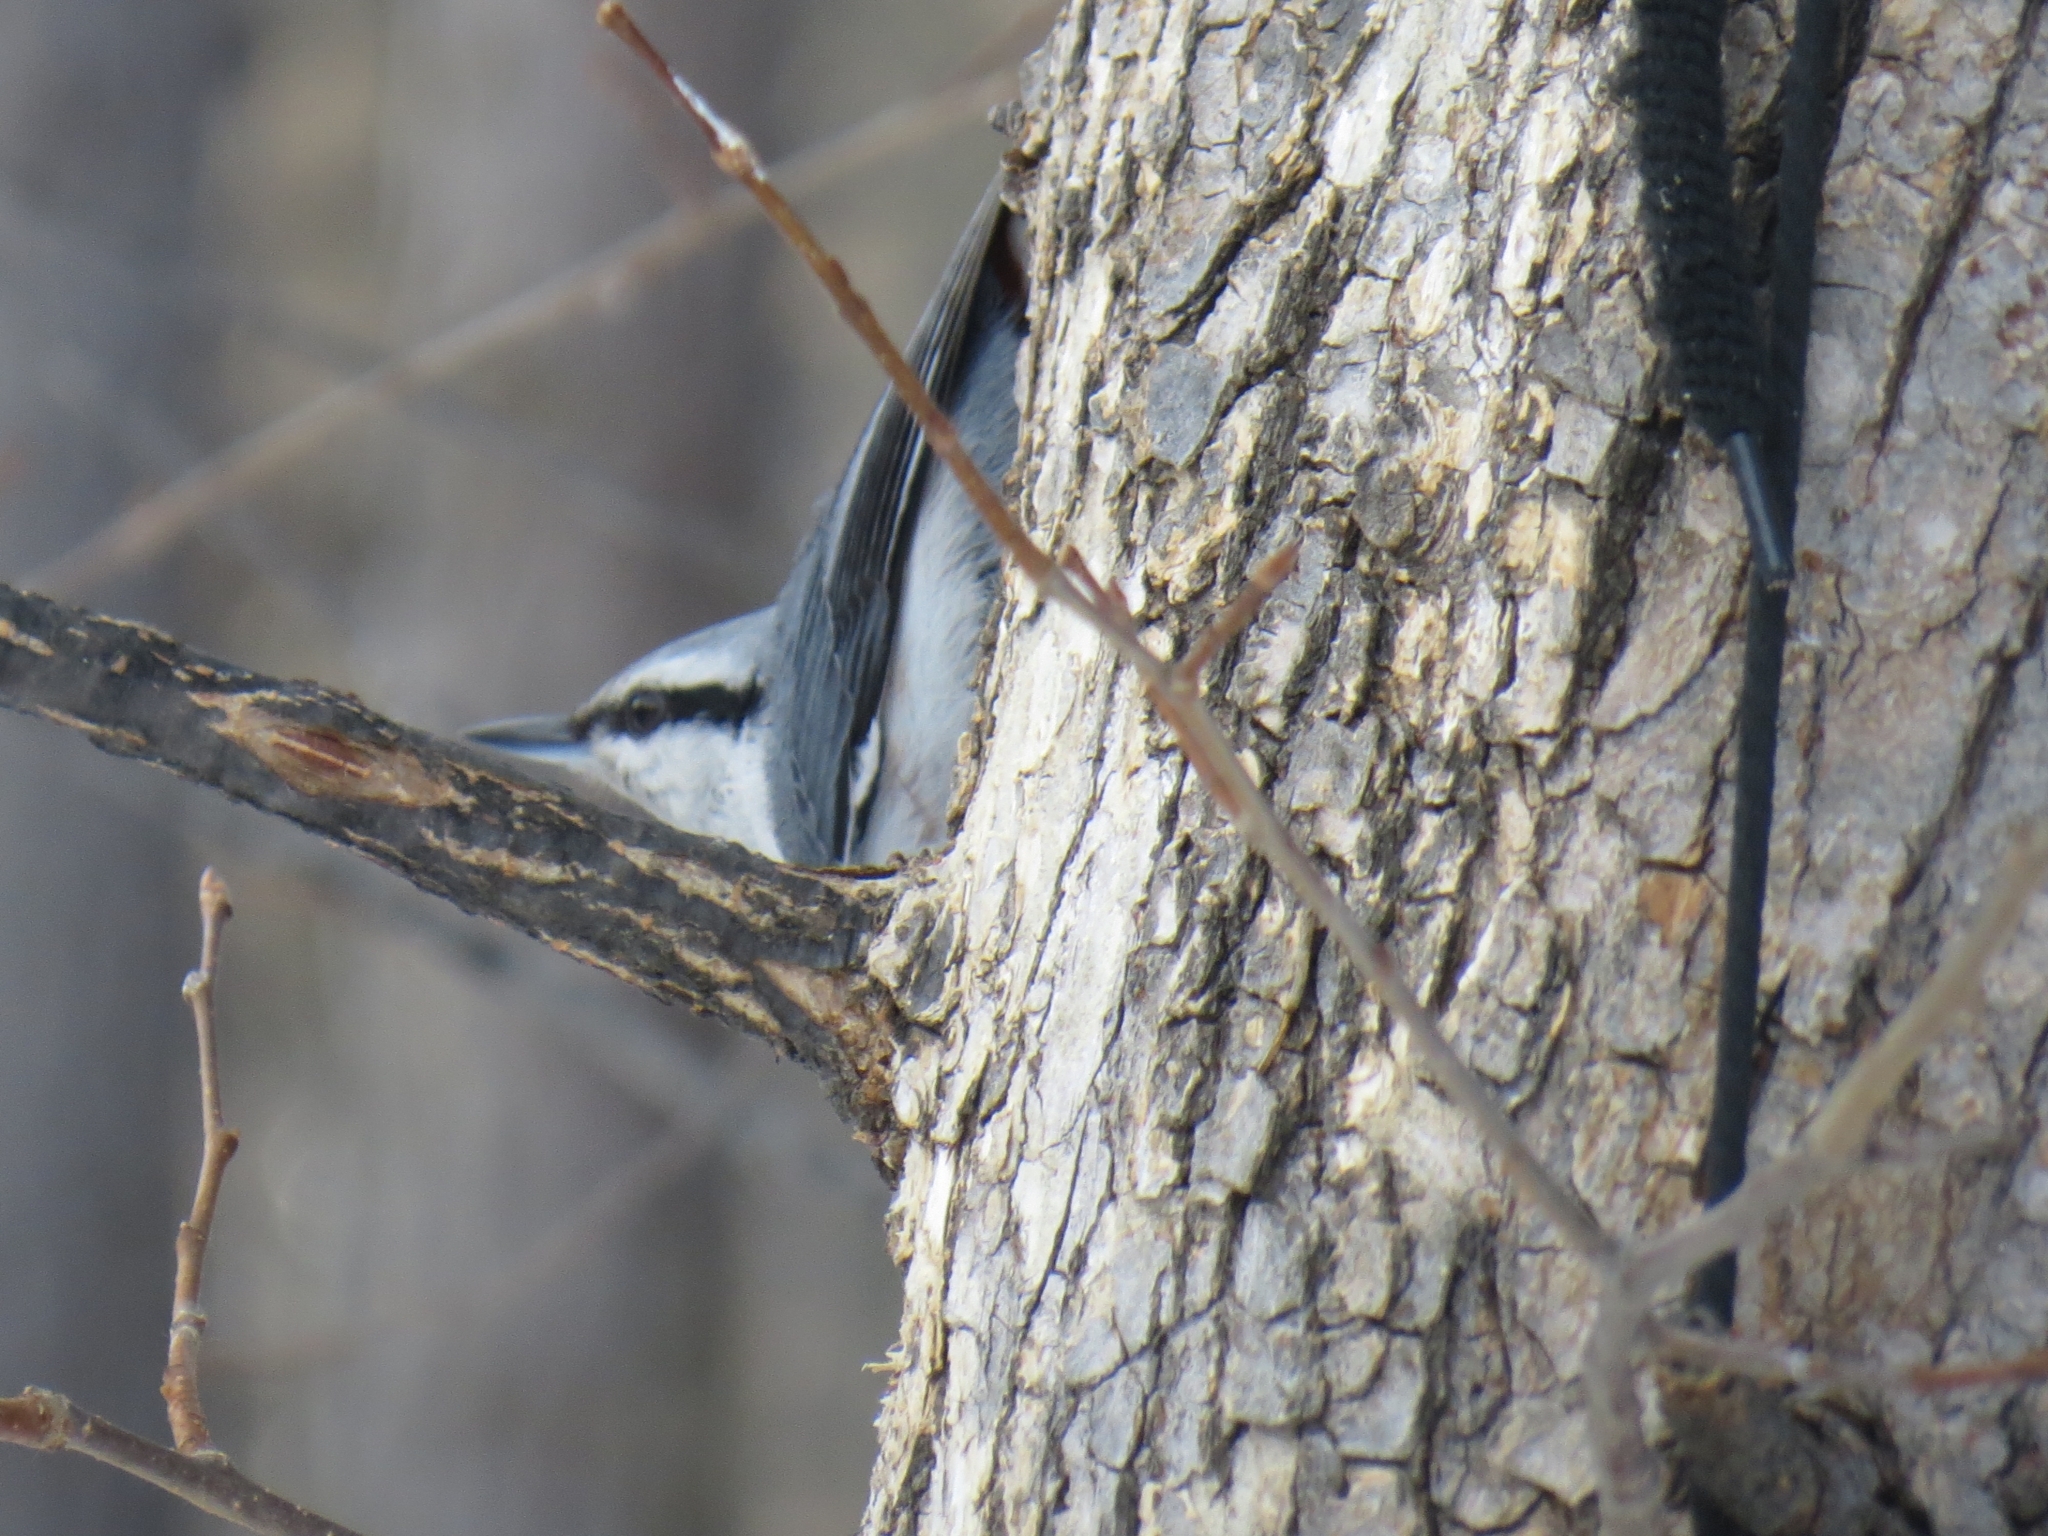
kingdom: Animalia
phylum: Chordata
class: Aves
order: Passeriformes
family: Sittidae
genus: Sitta
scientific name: Sitta europaea
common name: Eurasian nuthatch
